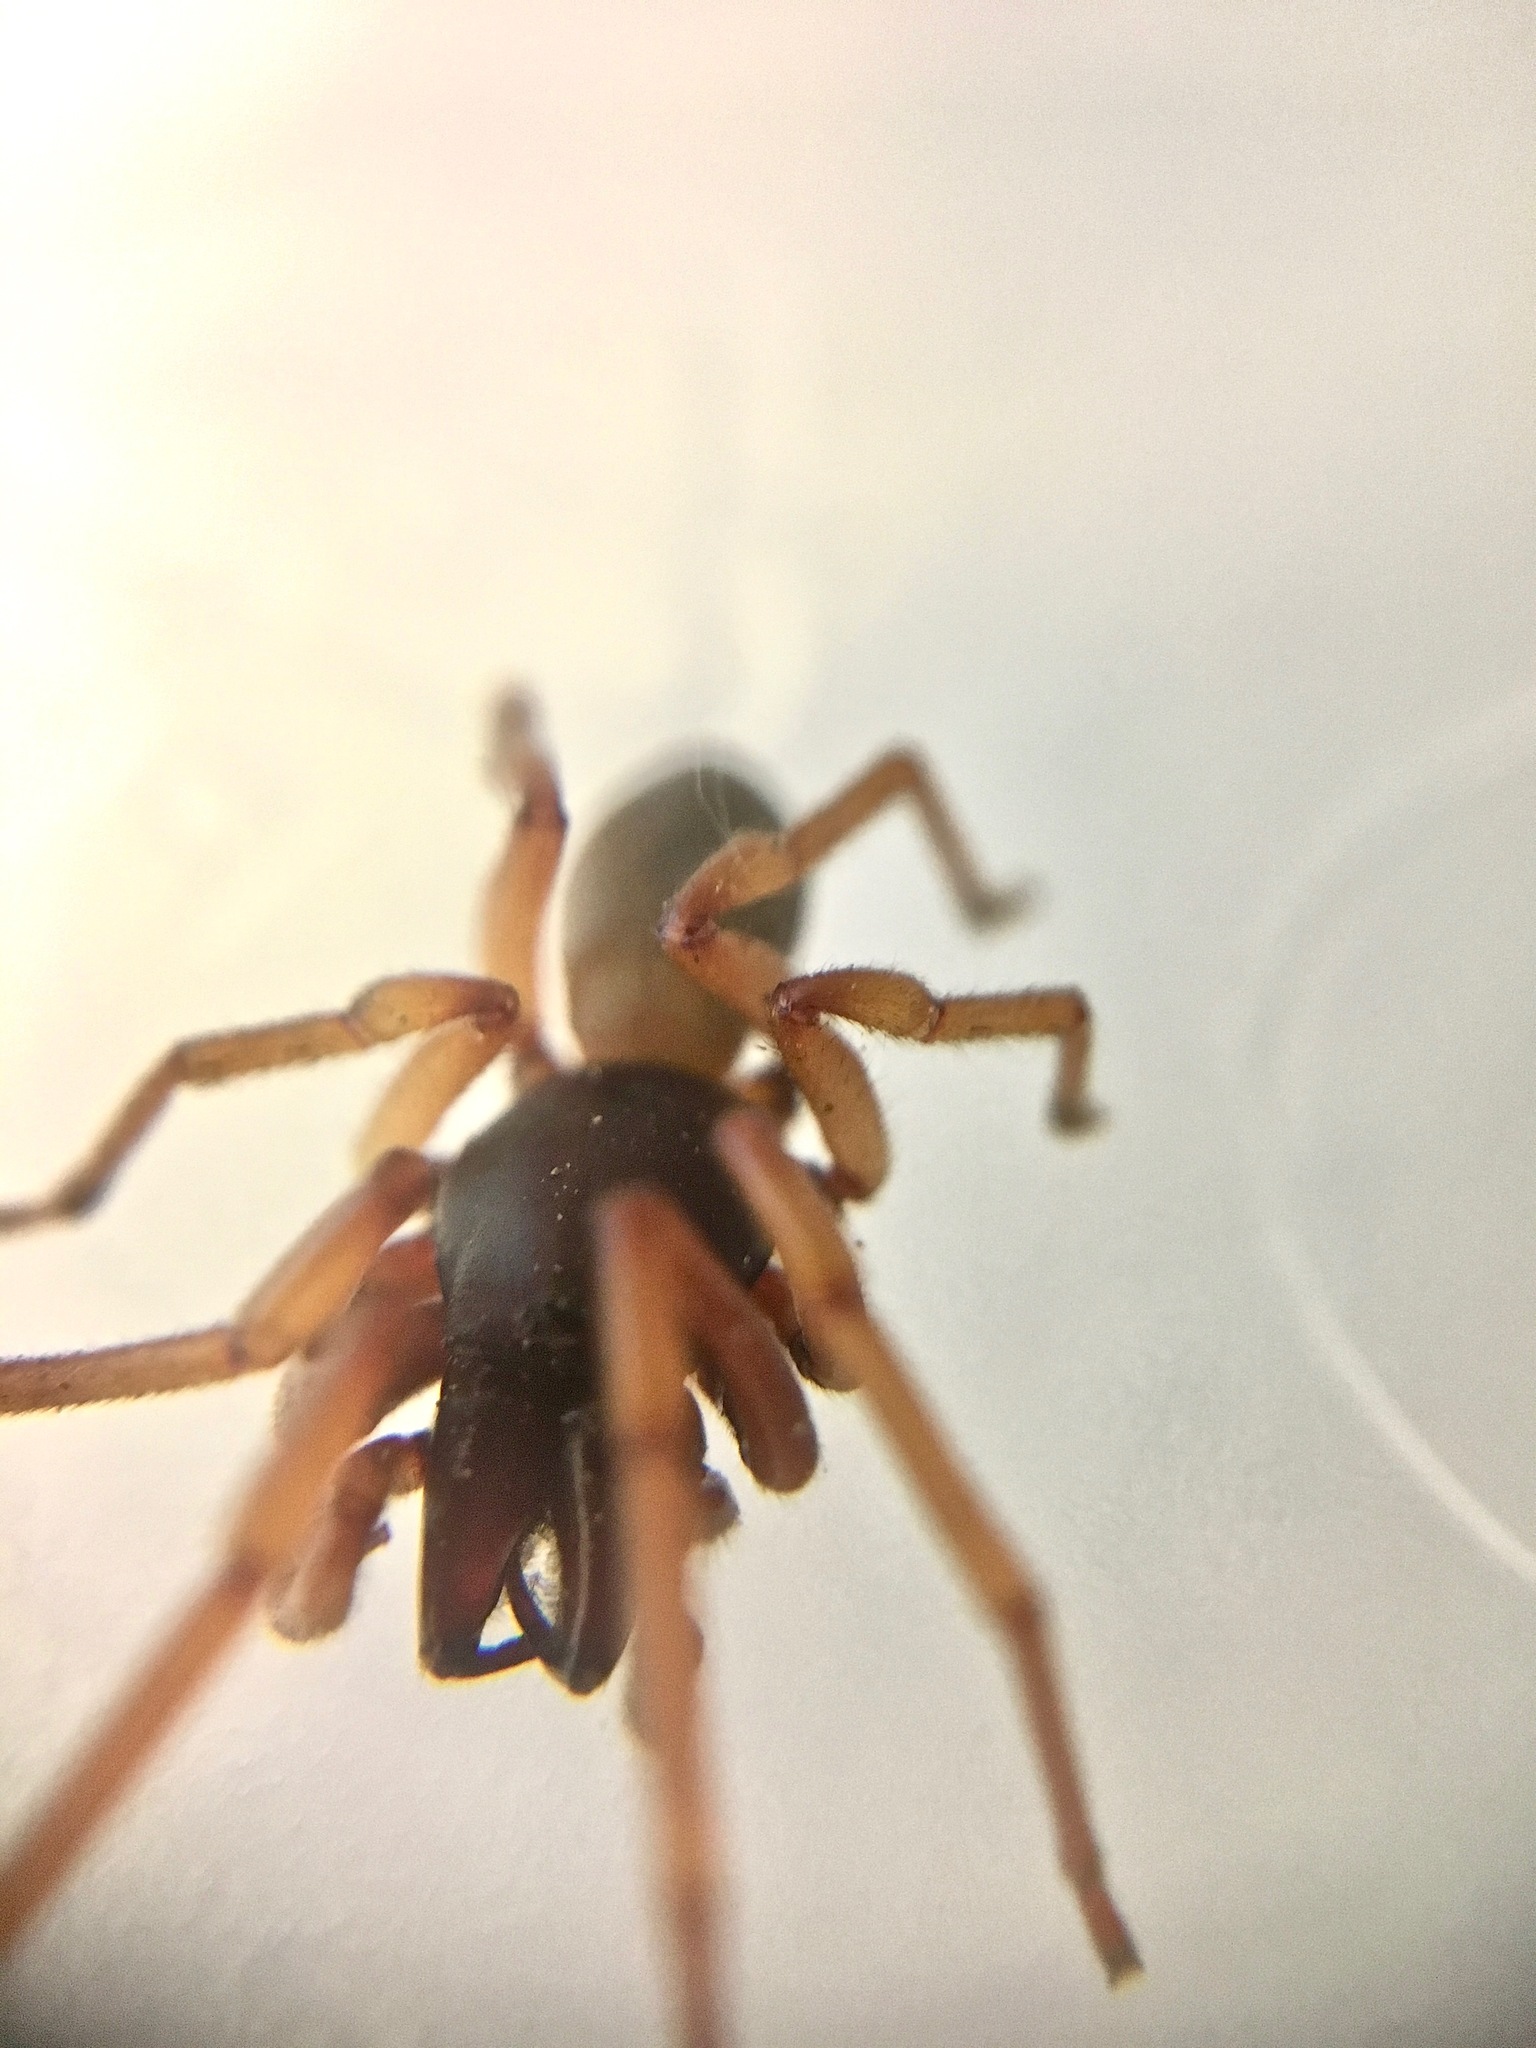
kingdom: Animalia
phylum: Arthropoda
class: Arachnida
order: Araneae
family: Dysderidae
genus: Dysdera
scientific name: Dysdera crocata
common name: Woodlouse spider
